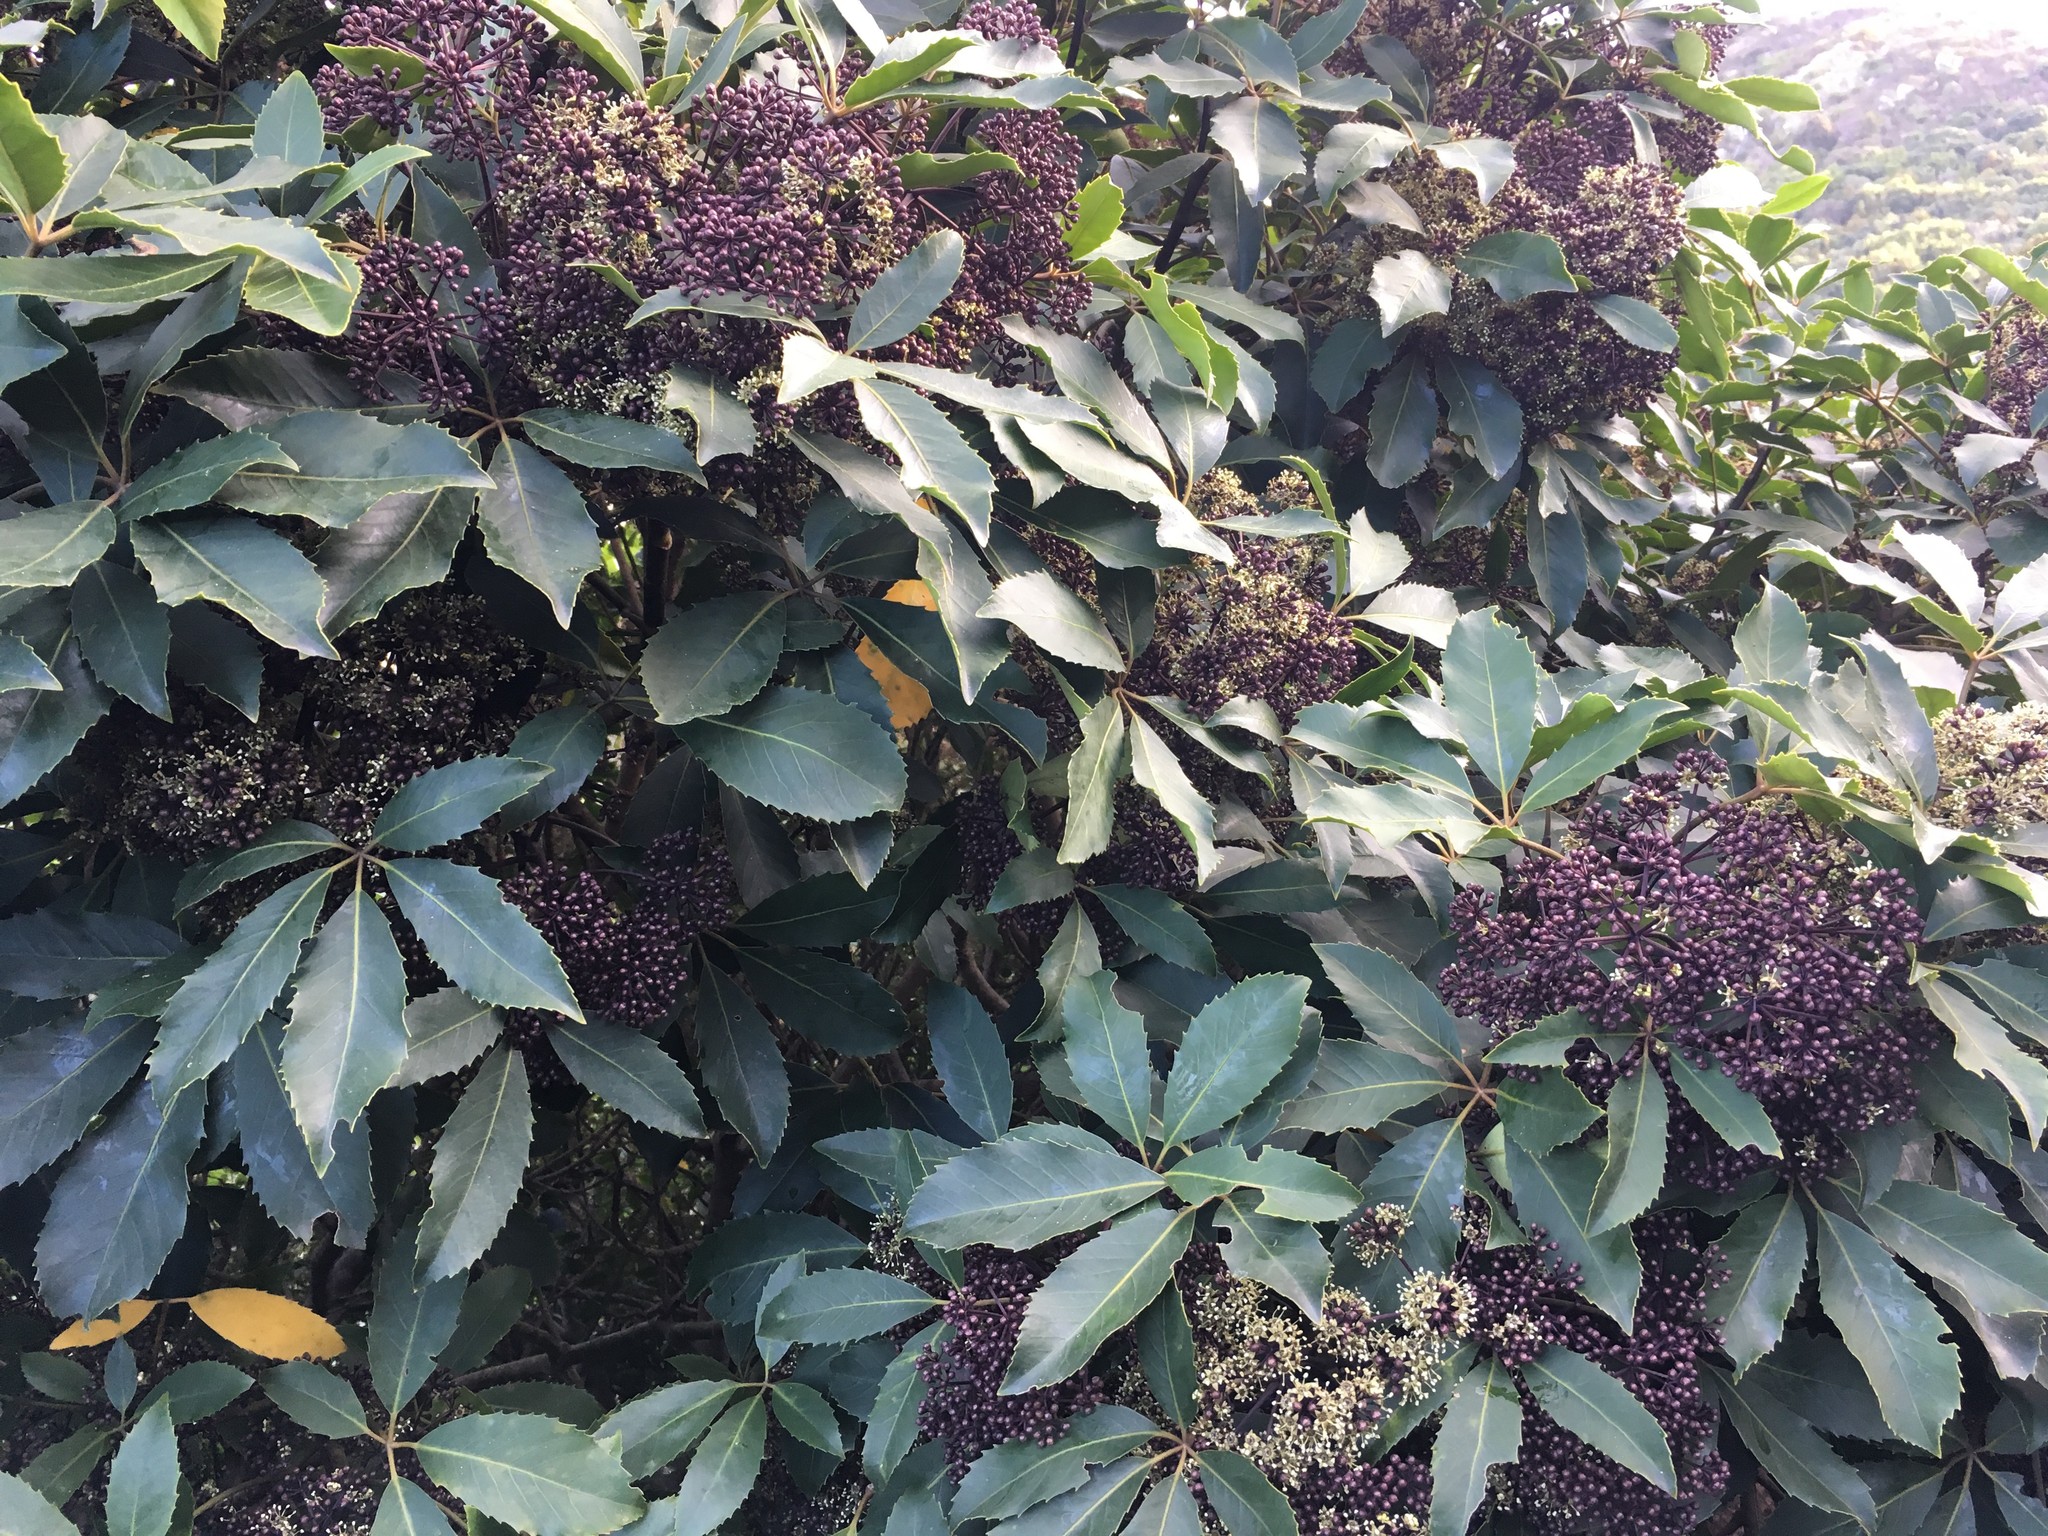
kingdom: Plantae
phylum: Tracheophyta
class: Magnoliopsida
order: Apiales
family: Araliaceae
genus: Neopanax
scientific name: Neopanax arboreus
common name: Five-fingers
